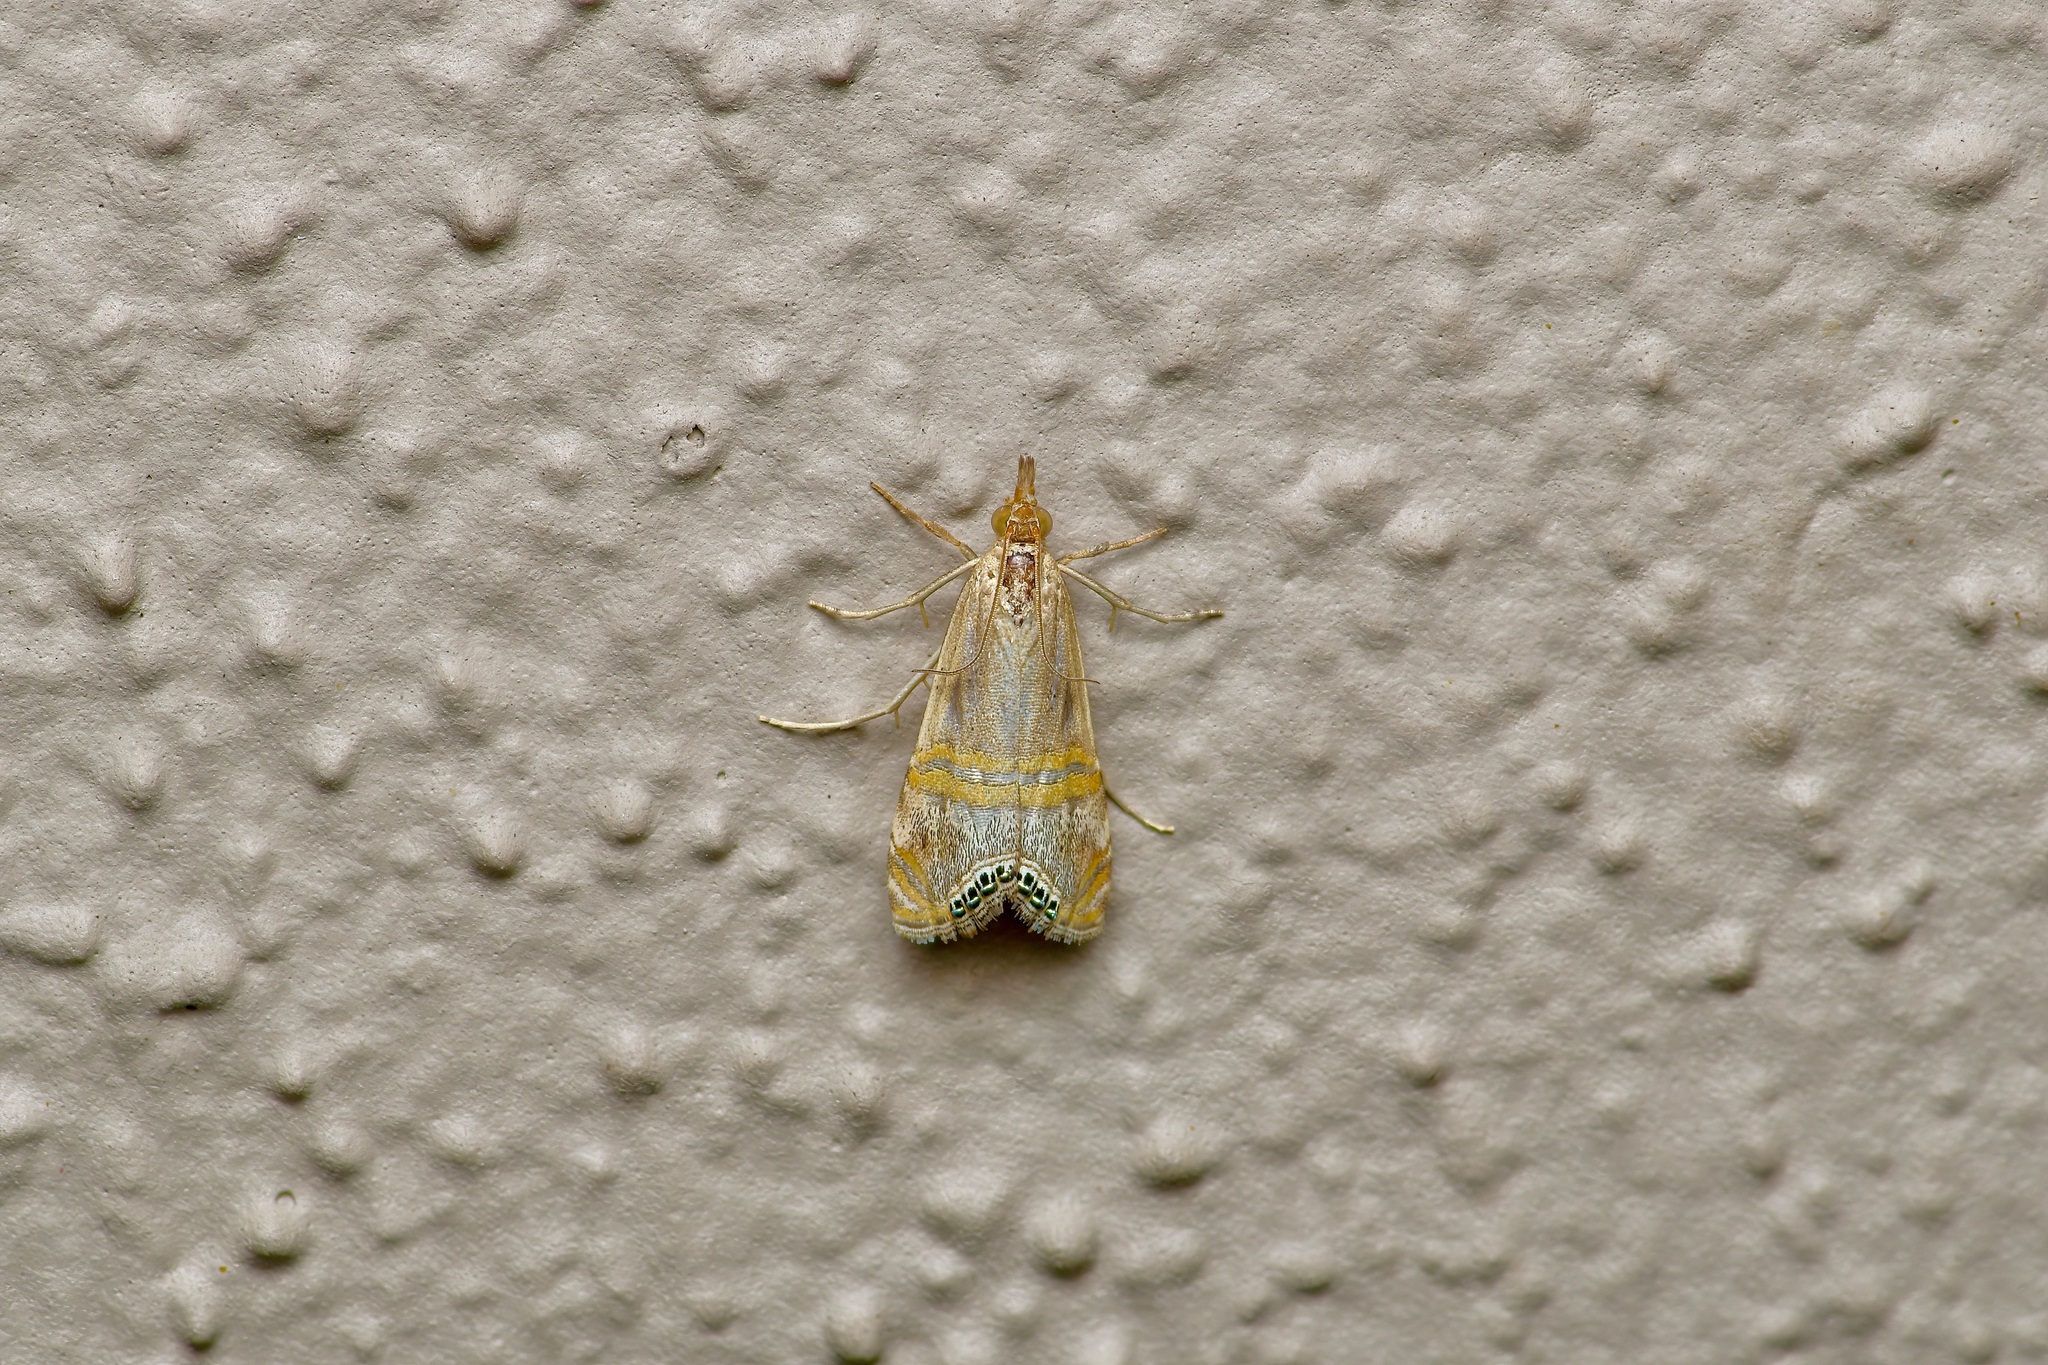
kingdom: Animalia
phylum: Arthropoda
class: Insecta
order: Lepidoptera
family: Crambidae
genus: Euchromius
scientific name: Euchromius ocellea
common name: Necklace veneer moth
